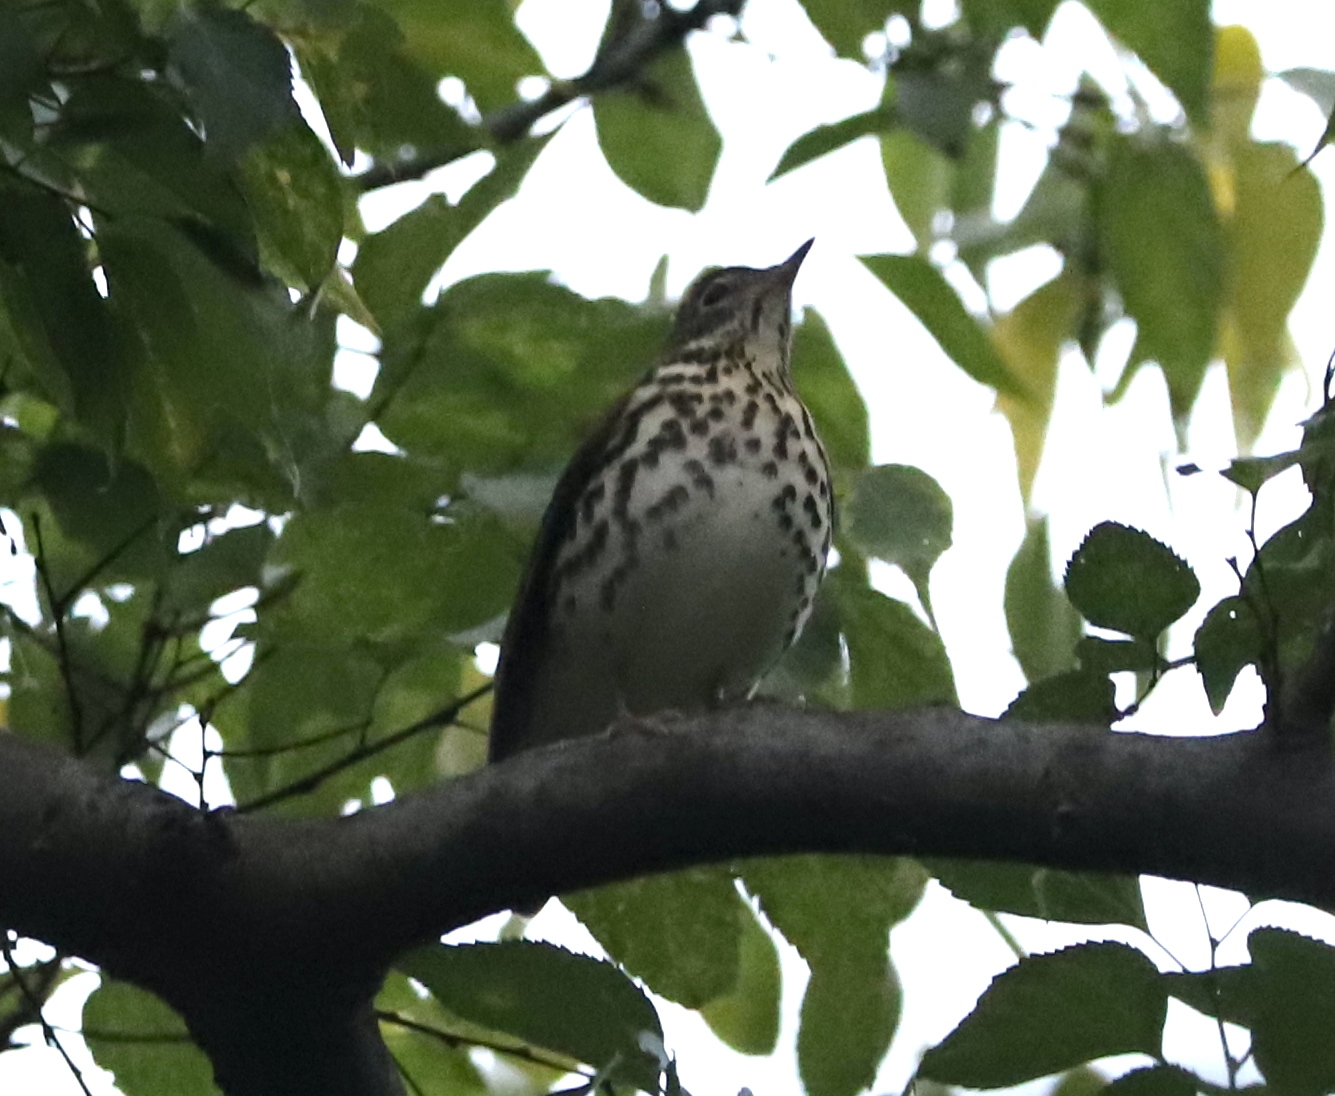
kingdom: Animalia
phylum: Chordata
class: Aves
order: Passeriformes
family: Turdidae
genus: Hylocichla
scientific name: Hylocichla mustelina
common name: Wood thrush
